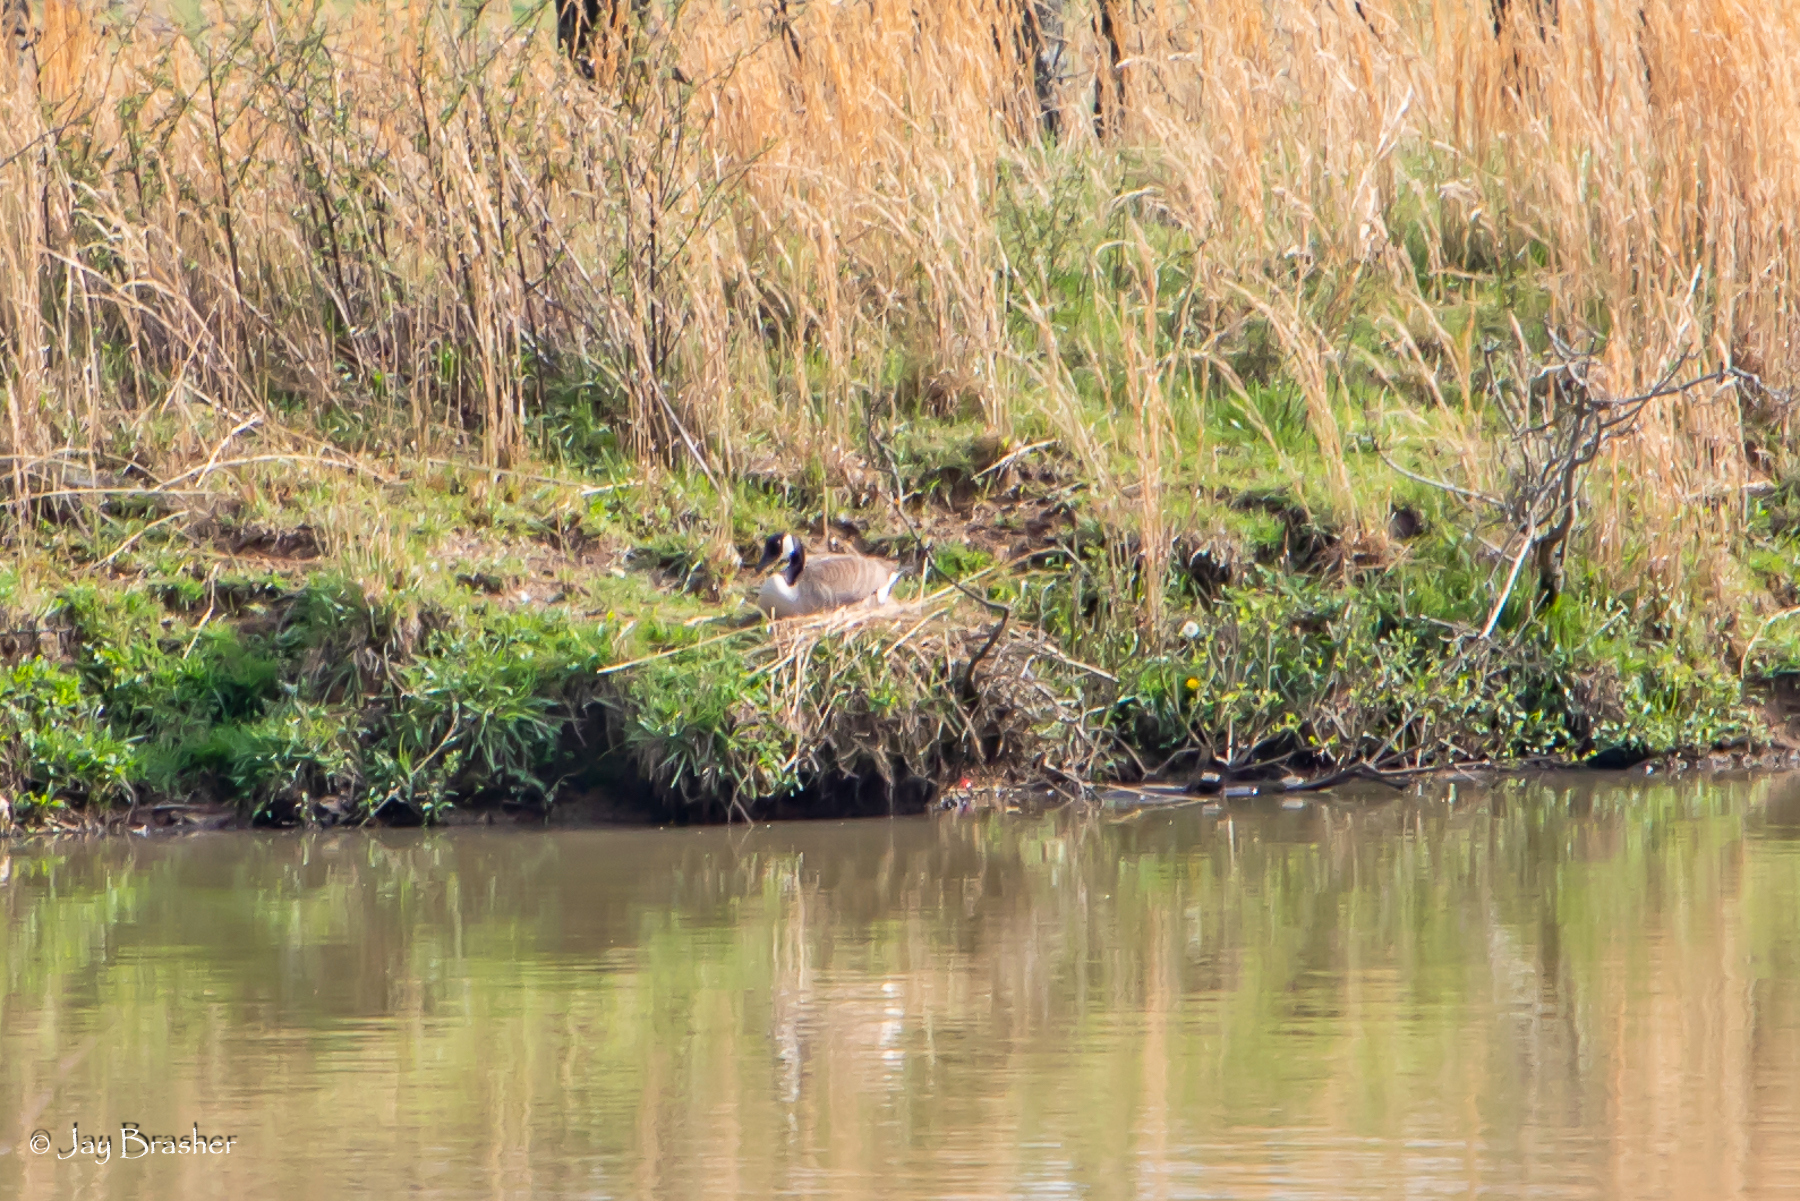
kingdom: Animalia
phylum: Chordata
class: Aves
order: Anseriformes
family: Anatidae
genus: Branta
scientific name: Branta canadensis
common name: Canada goose
